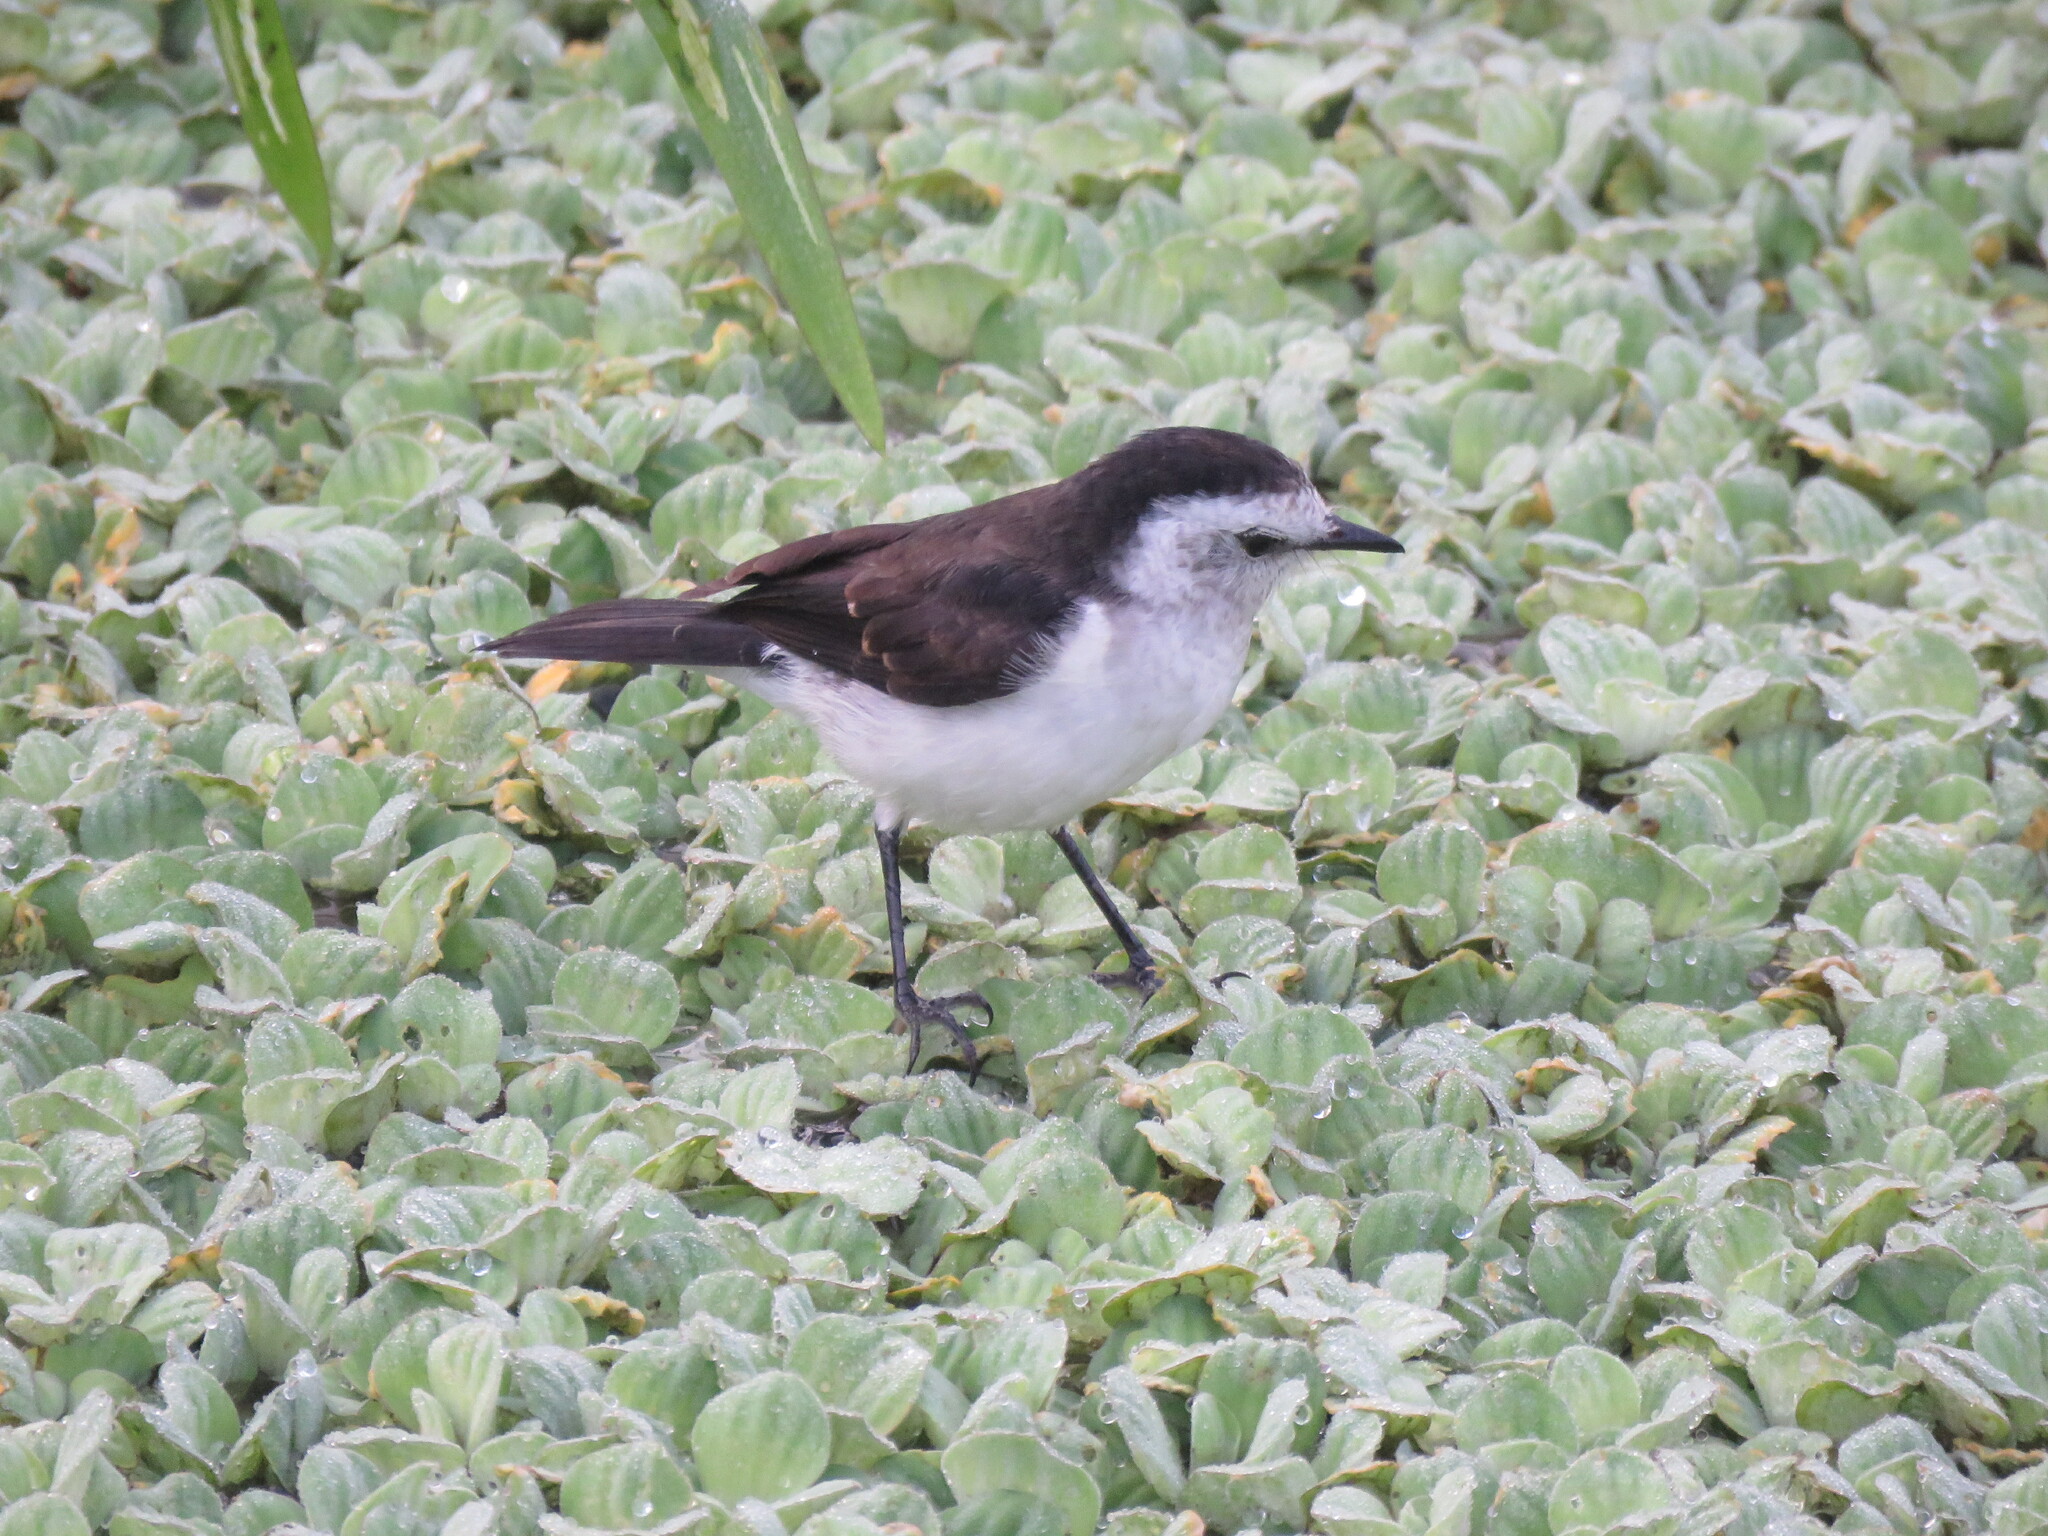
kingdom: Animalia
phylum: Chordata
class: Aves
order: Passeriformes
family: Tyrannidae
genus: Fluvicola
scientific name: Fluvicola pica
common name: Pied water-tyrant
